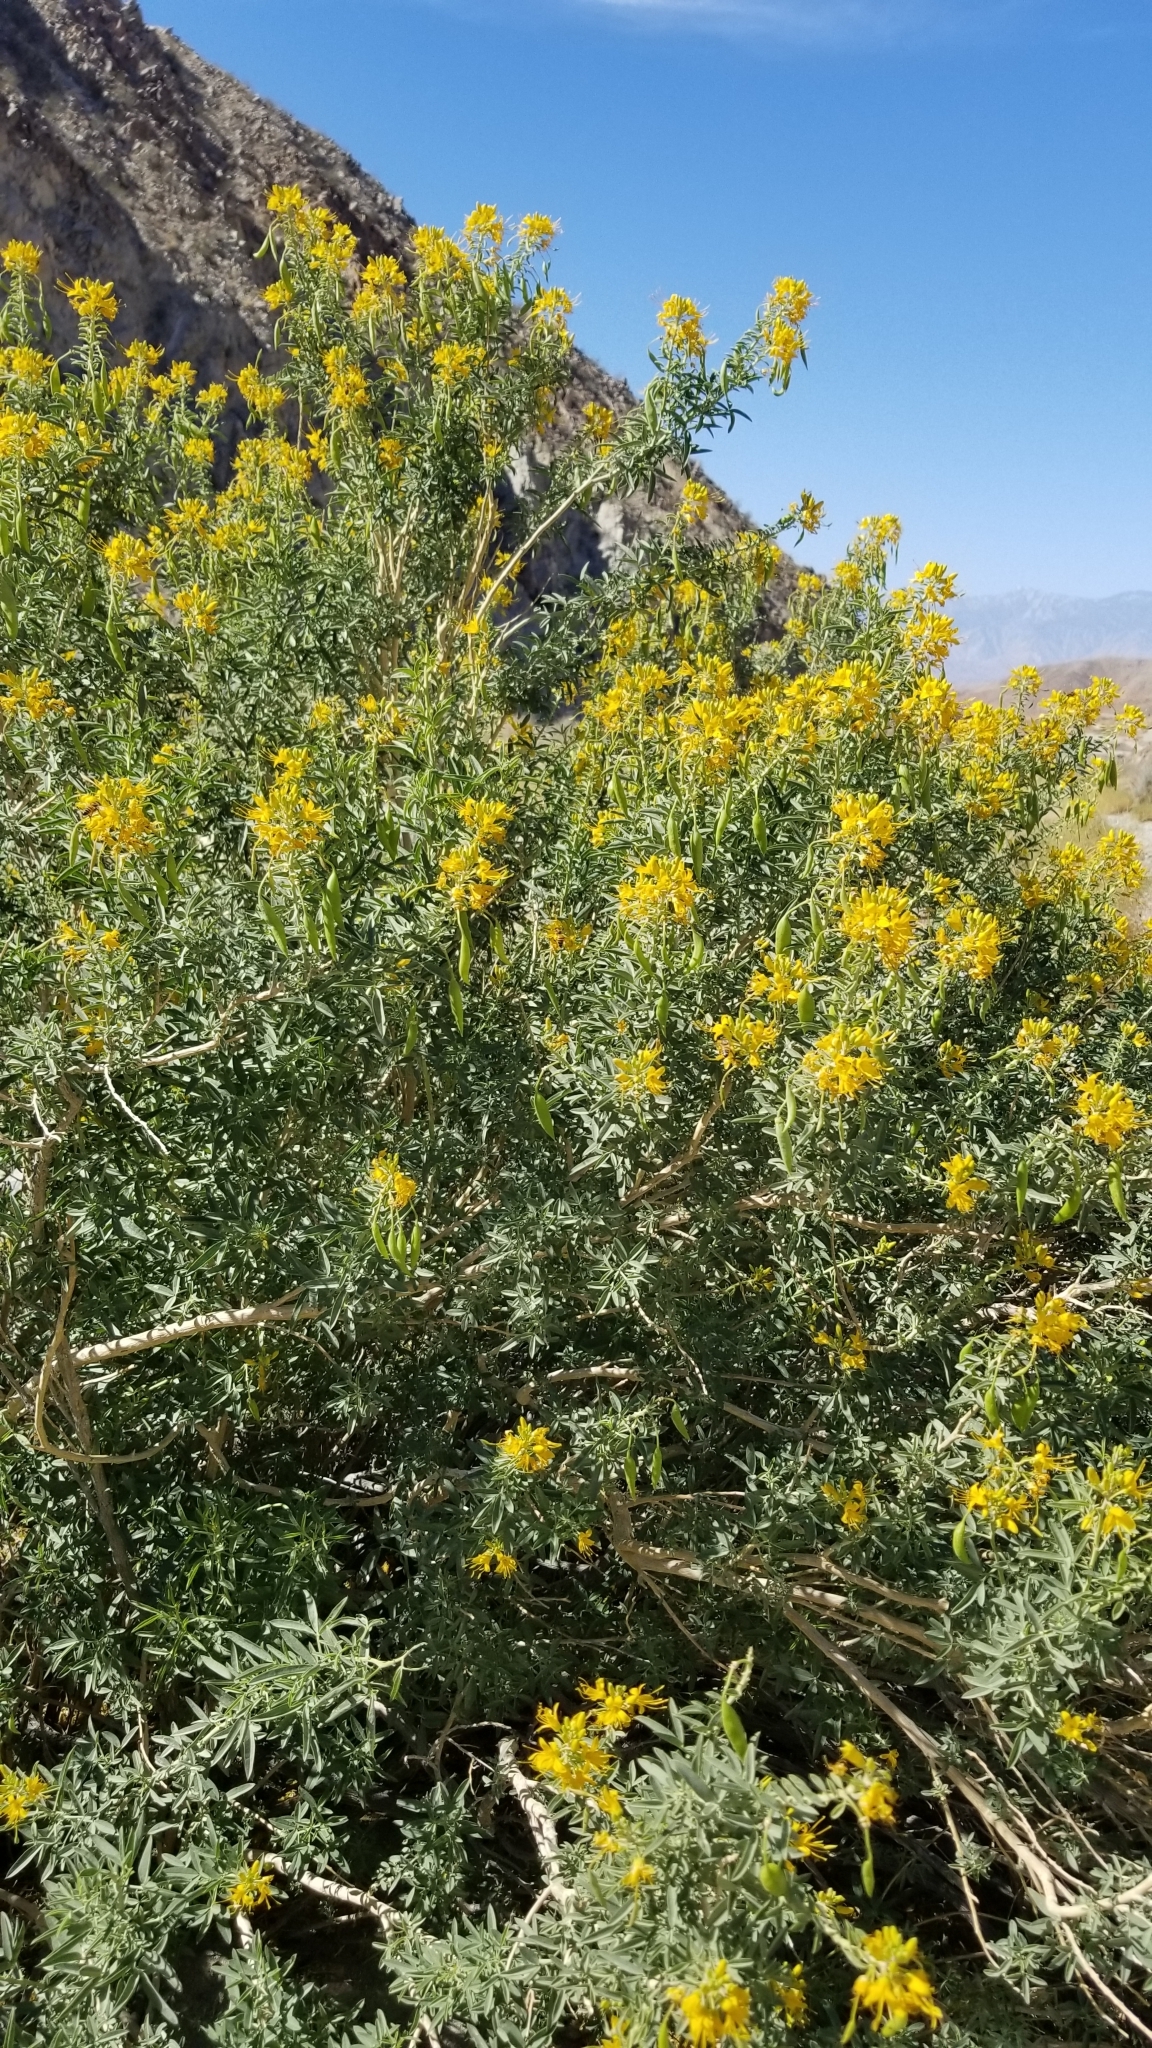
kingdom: Plantae
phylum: Tracheophyta
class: Magnoliopsida
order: Brassicales
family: Cleomaceae
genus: Cleomella
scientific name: Cleomella arborea
